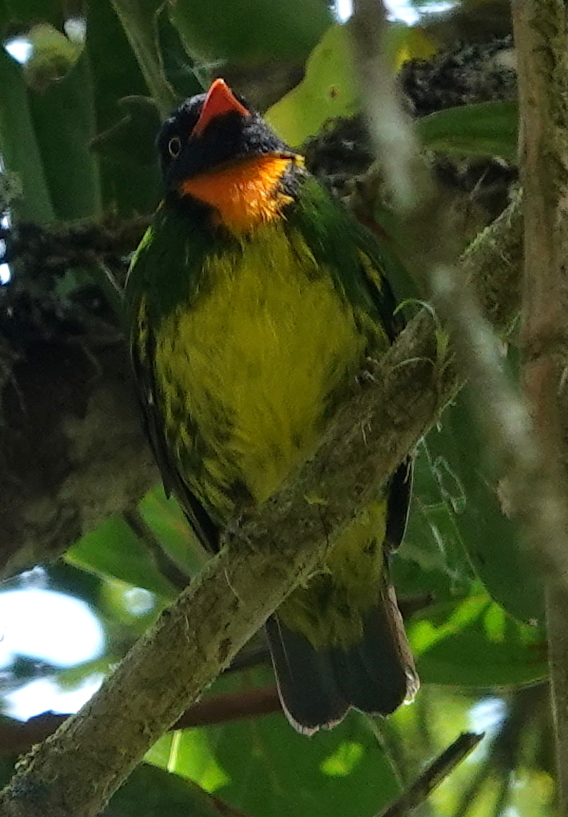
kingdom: Animalia
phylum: Chordata
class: Aves
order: Passeriformes
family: Cotingidae
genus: Pipreola
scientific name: Pipreola jucunda
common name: Orange-breasted fruiteater
